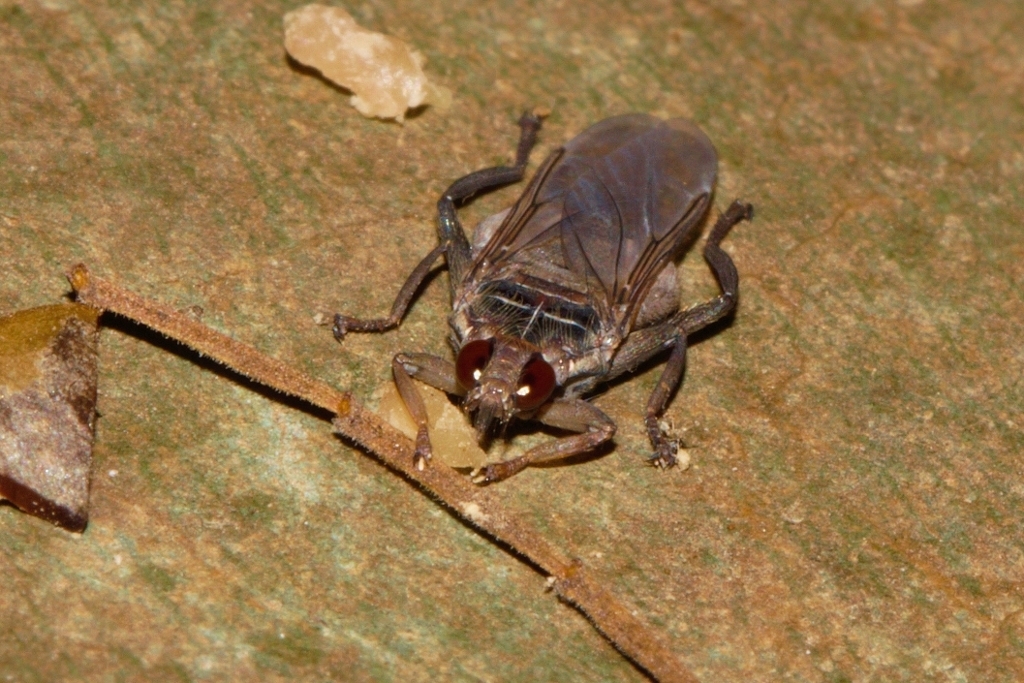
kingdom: Animalia
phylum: Arthropoda
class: Insecta
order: Diptera
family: Hippoboscidae
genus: Pseudolynchia
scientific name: Pseudolynchia canariensis
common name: Louse fly
